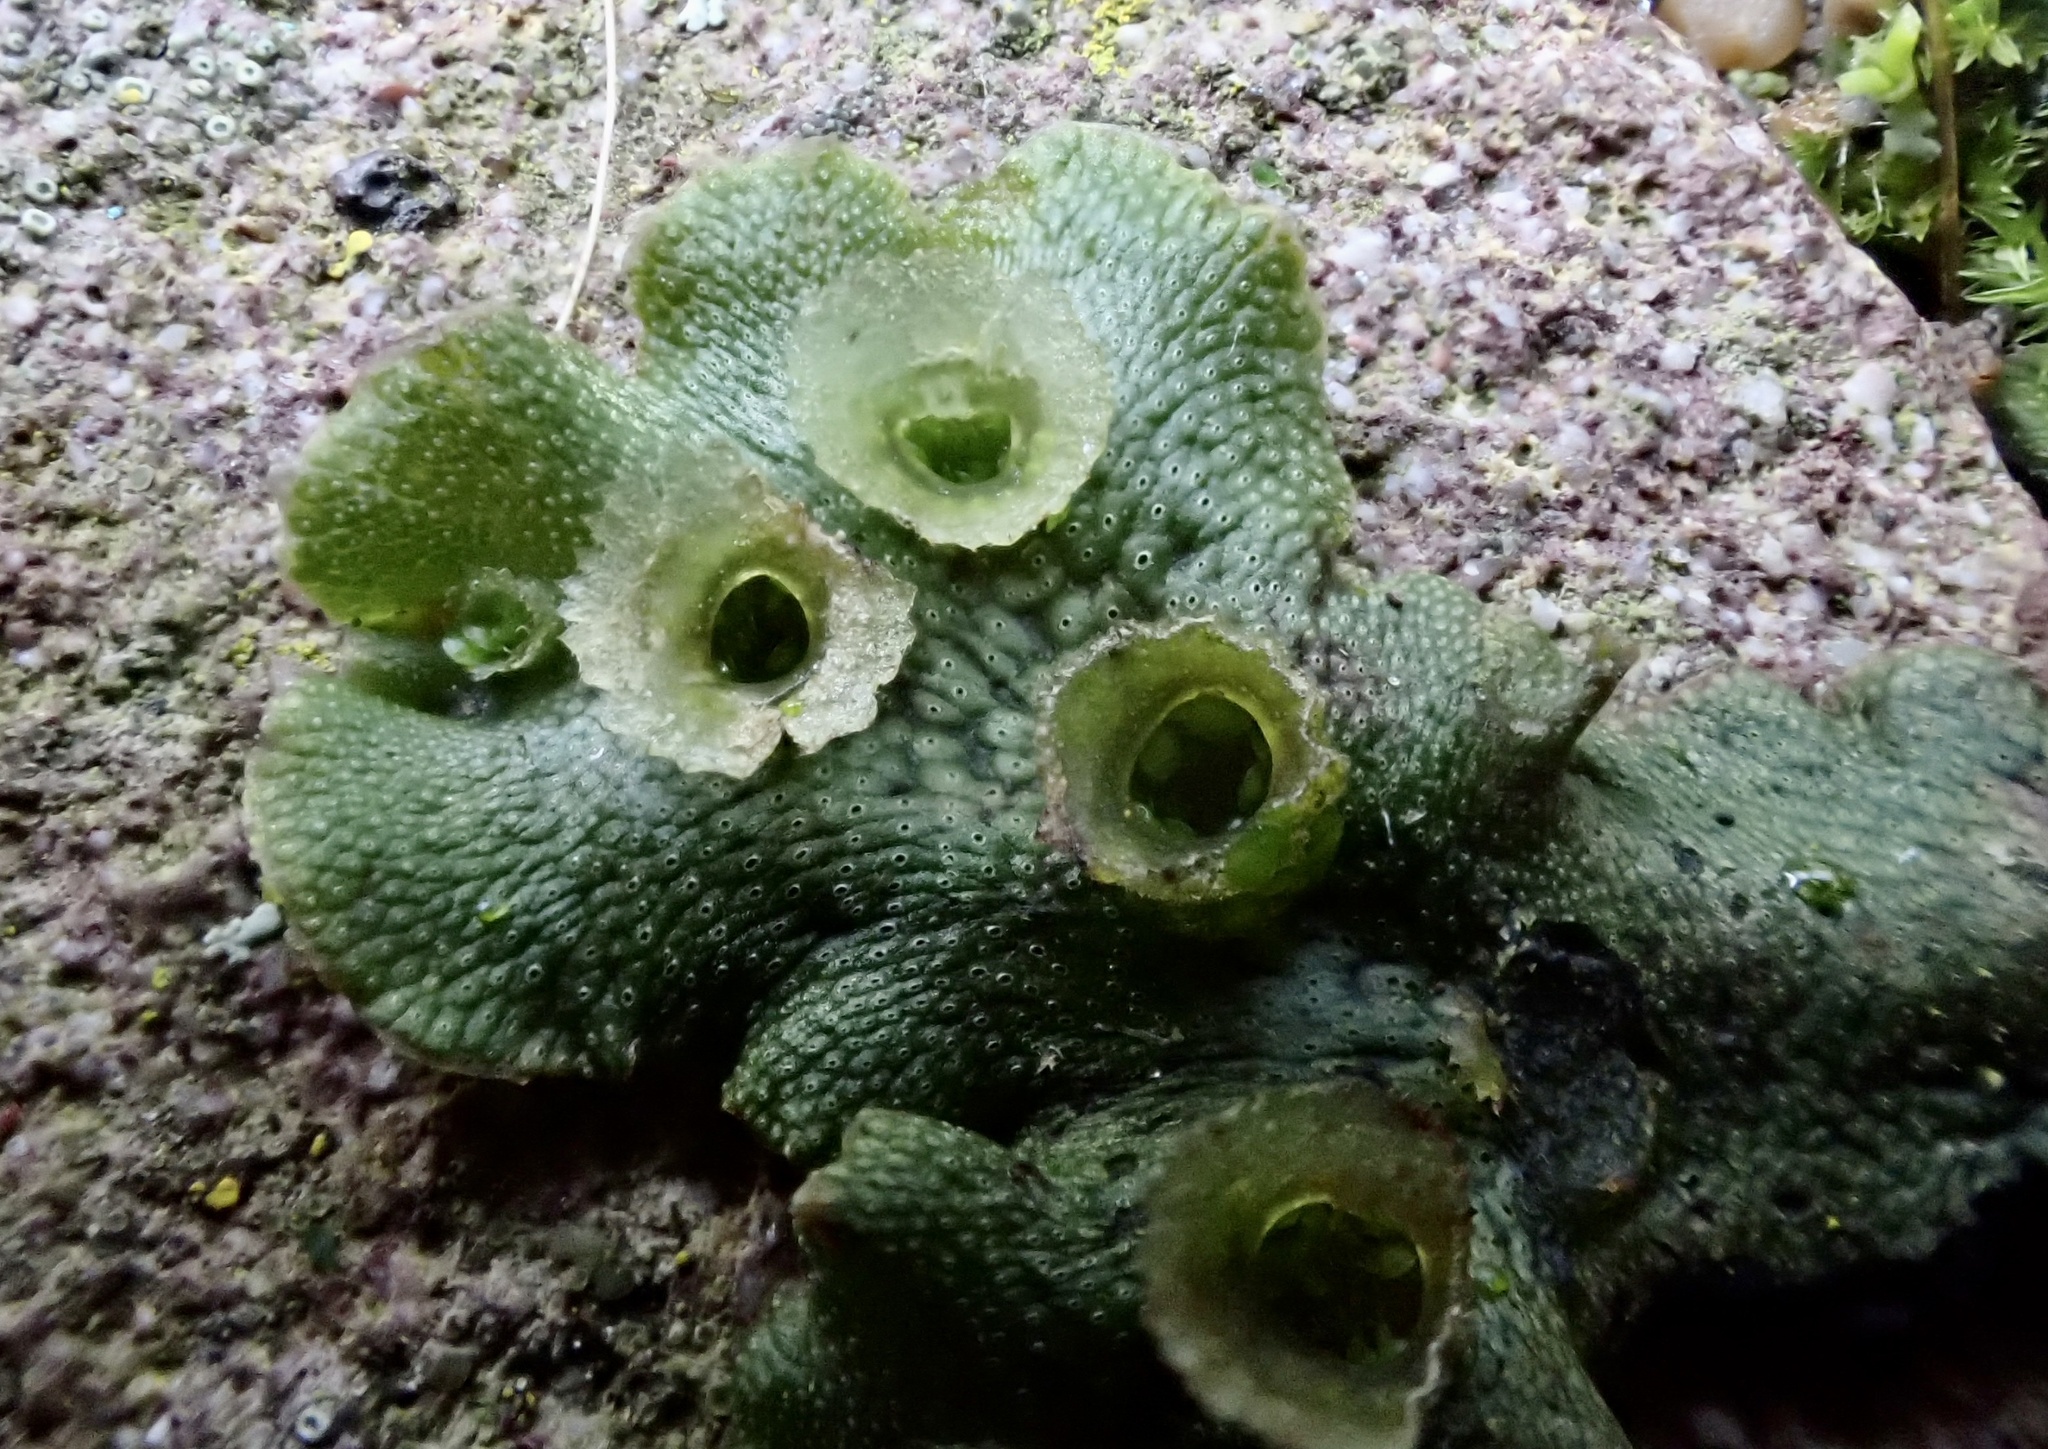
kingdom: Plantae
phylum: Marchantiophyta
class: Marchantiopsida
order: Marchantiales
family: Marchantiaceae
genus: Marchantia
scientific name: Marchantia polymorpha
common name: Common liverwort
